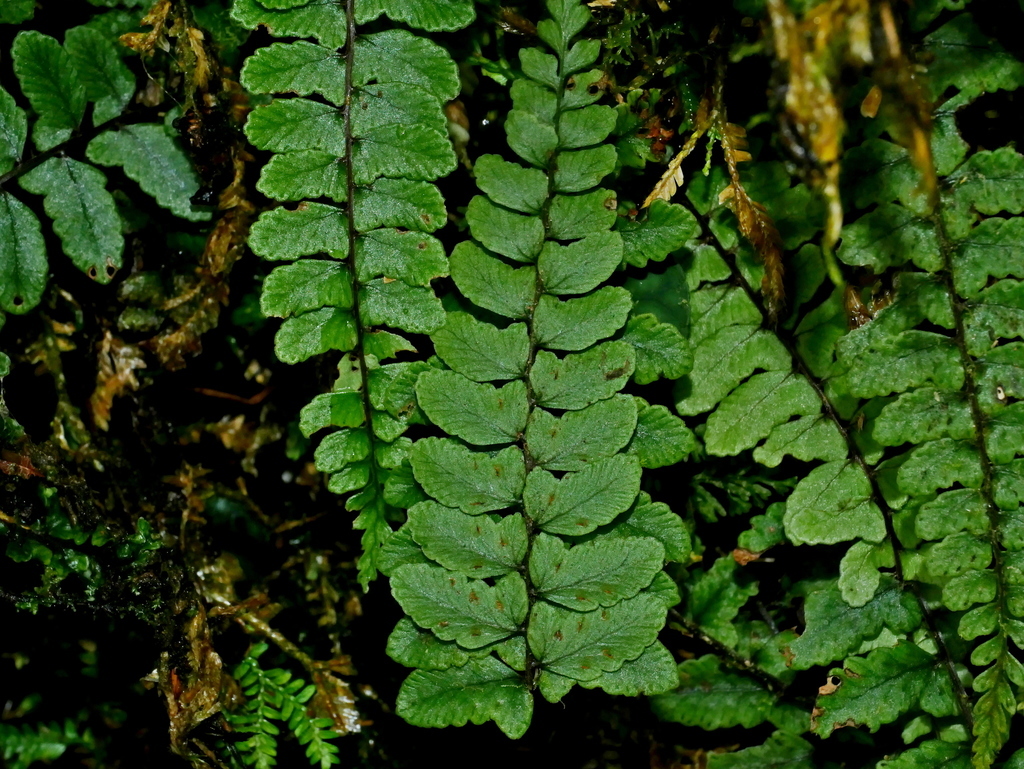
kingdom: Plantae
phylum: Tracheophyta
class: Polypodiopsida
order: Polypodiales
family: Athyriaceae
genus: Athyrium
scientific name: Athyrium nakanoi
